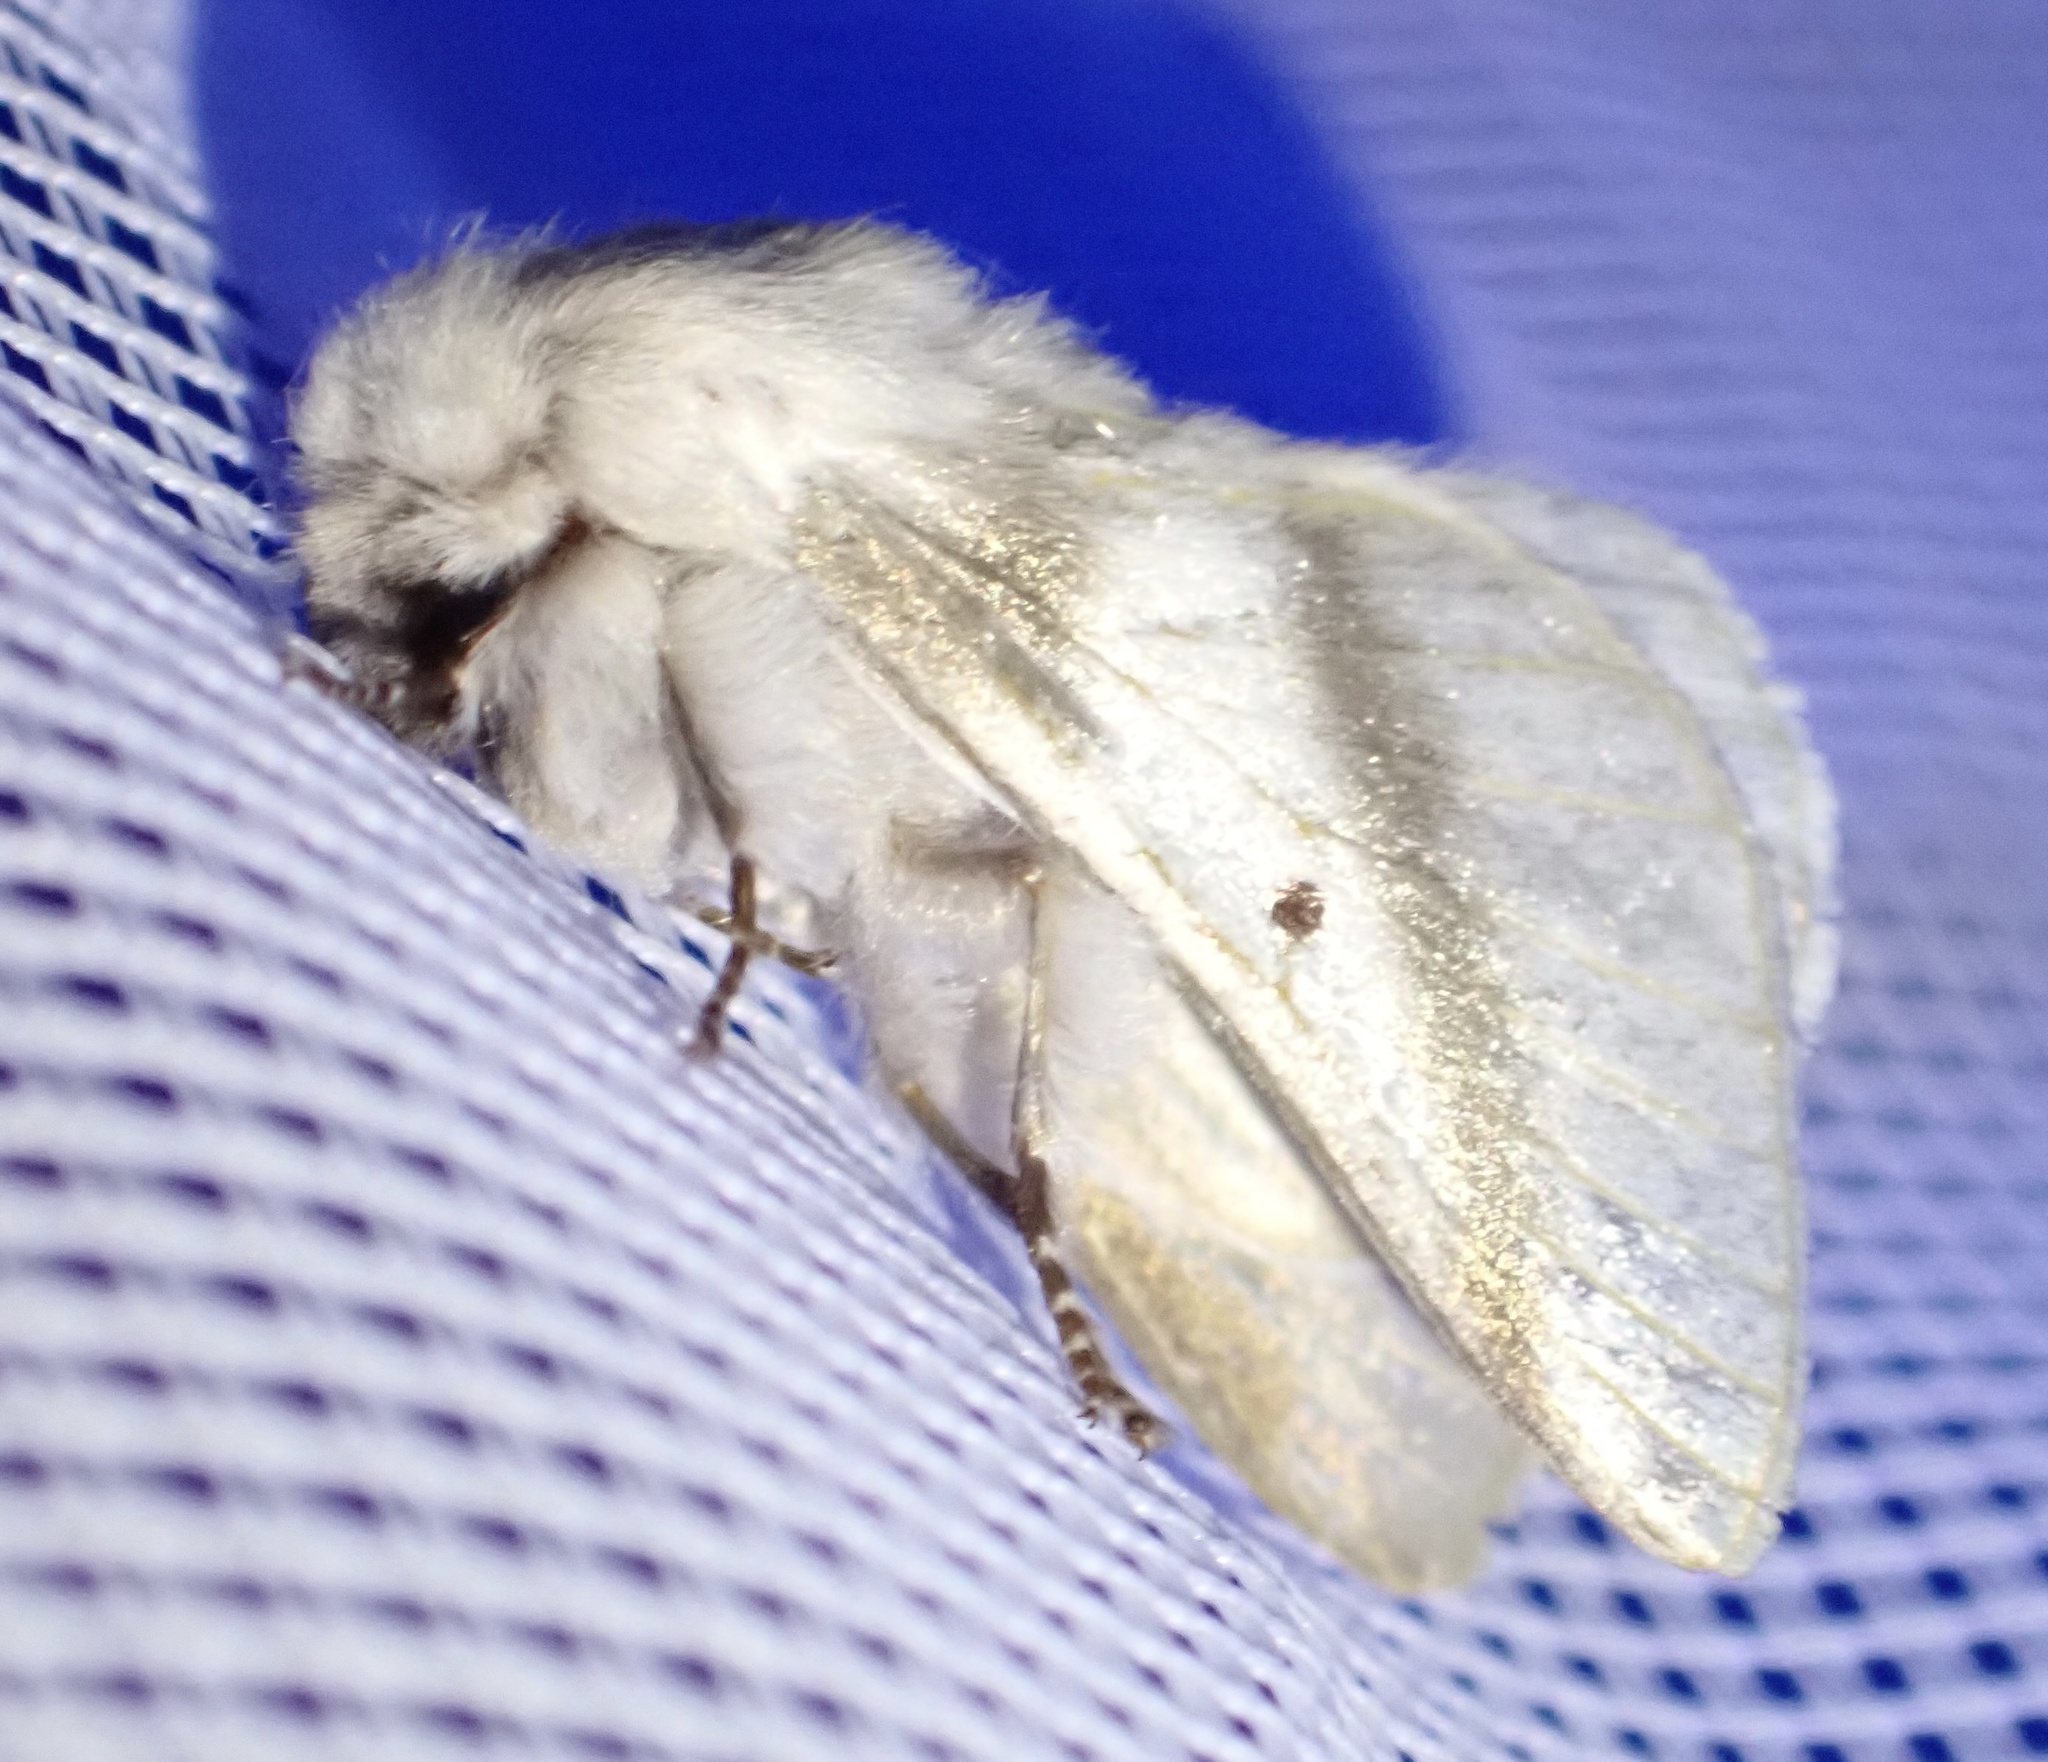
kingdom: Animalia
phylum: Arthropoda
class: Insecta
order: Lepidoptera
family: Lasiocampidae
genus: Bombycomorpha
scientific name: Bombycomorpha bifascia
